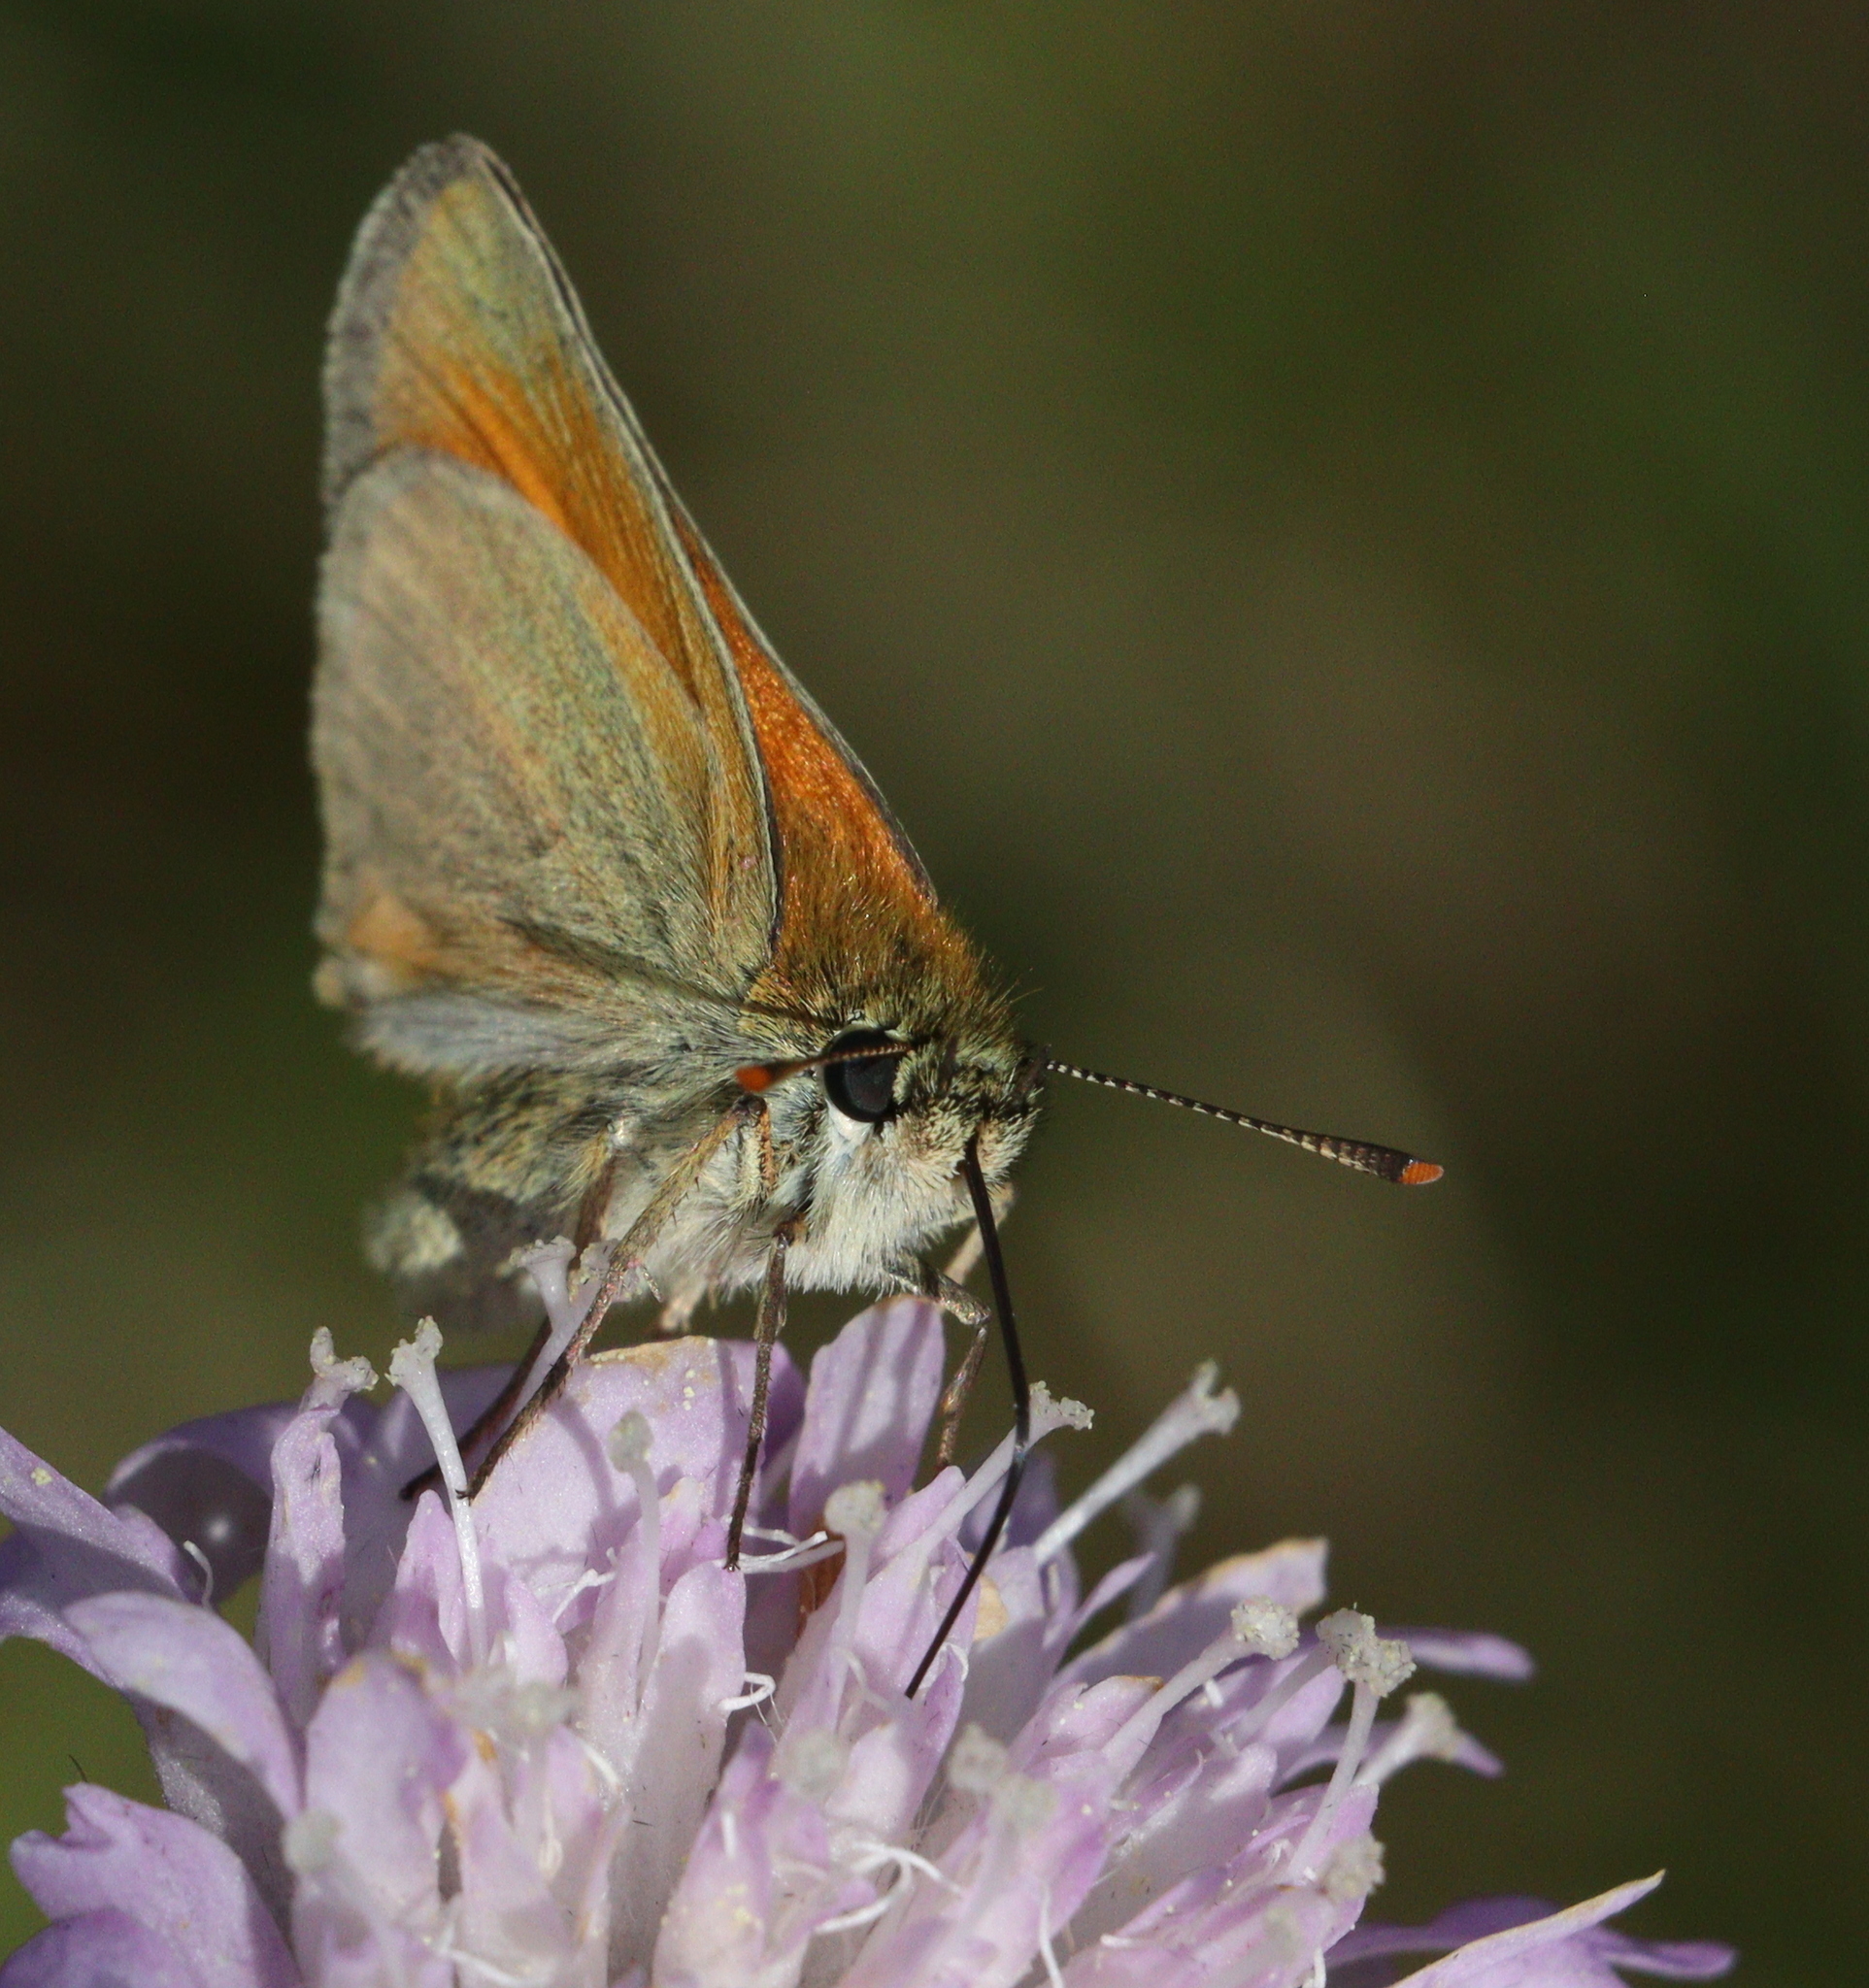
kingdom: Animalia
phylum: Arthropoda
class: Insecta
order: Lepidoptera
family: Hesperiidae
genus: Thymelicus
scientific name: Thymelicus sylvestris
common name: Small skipper
